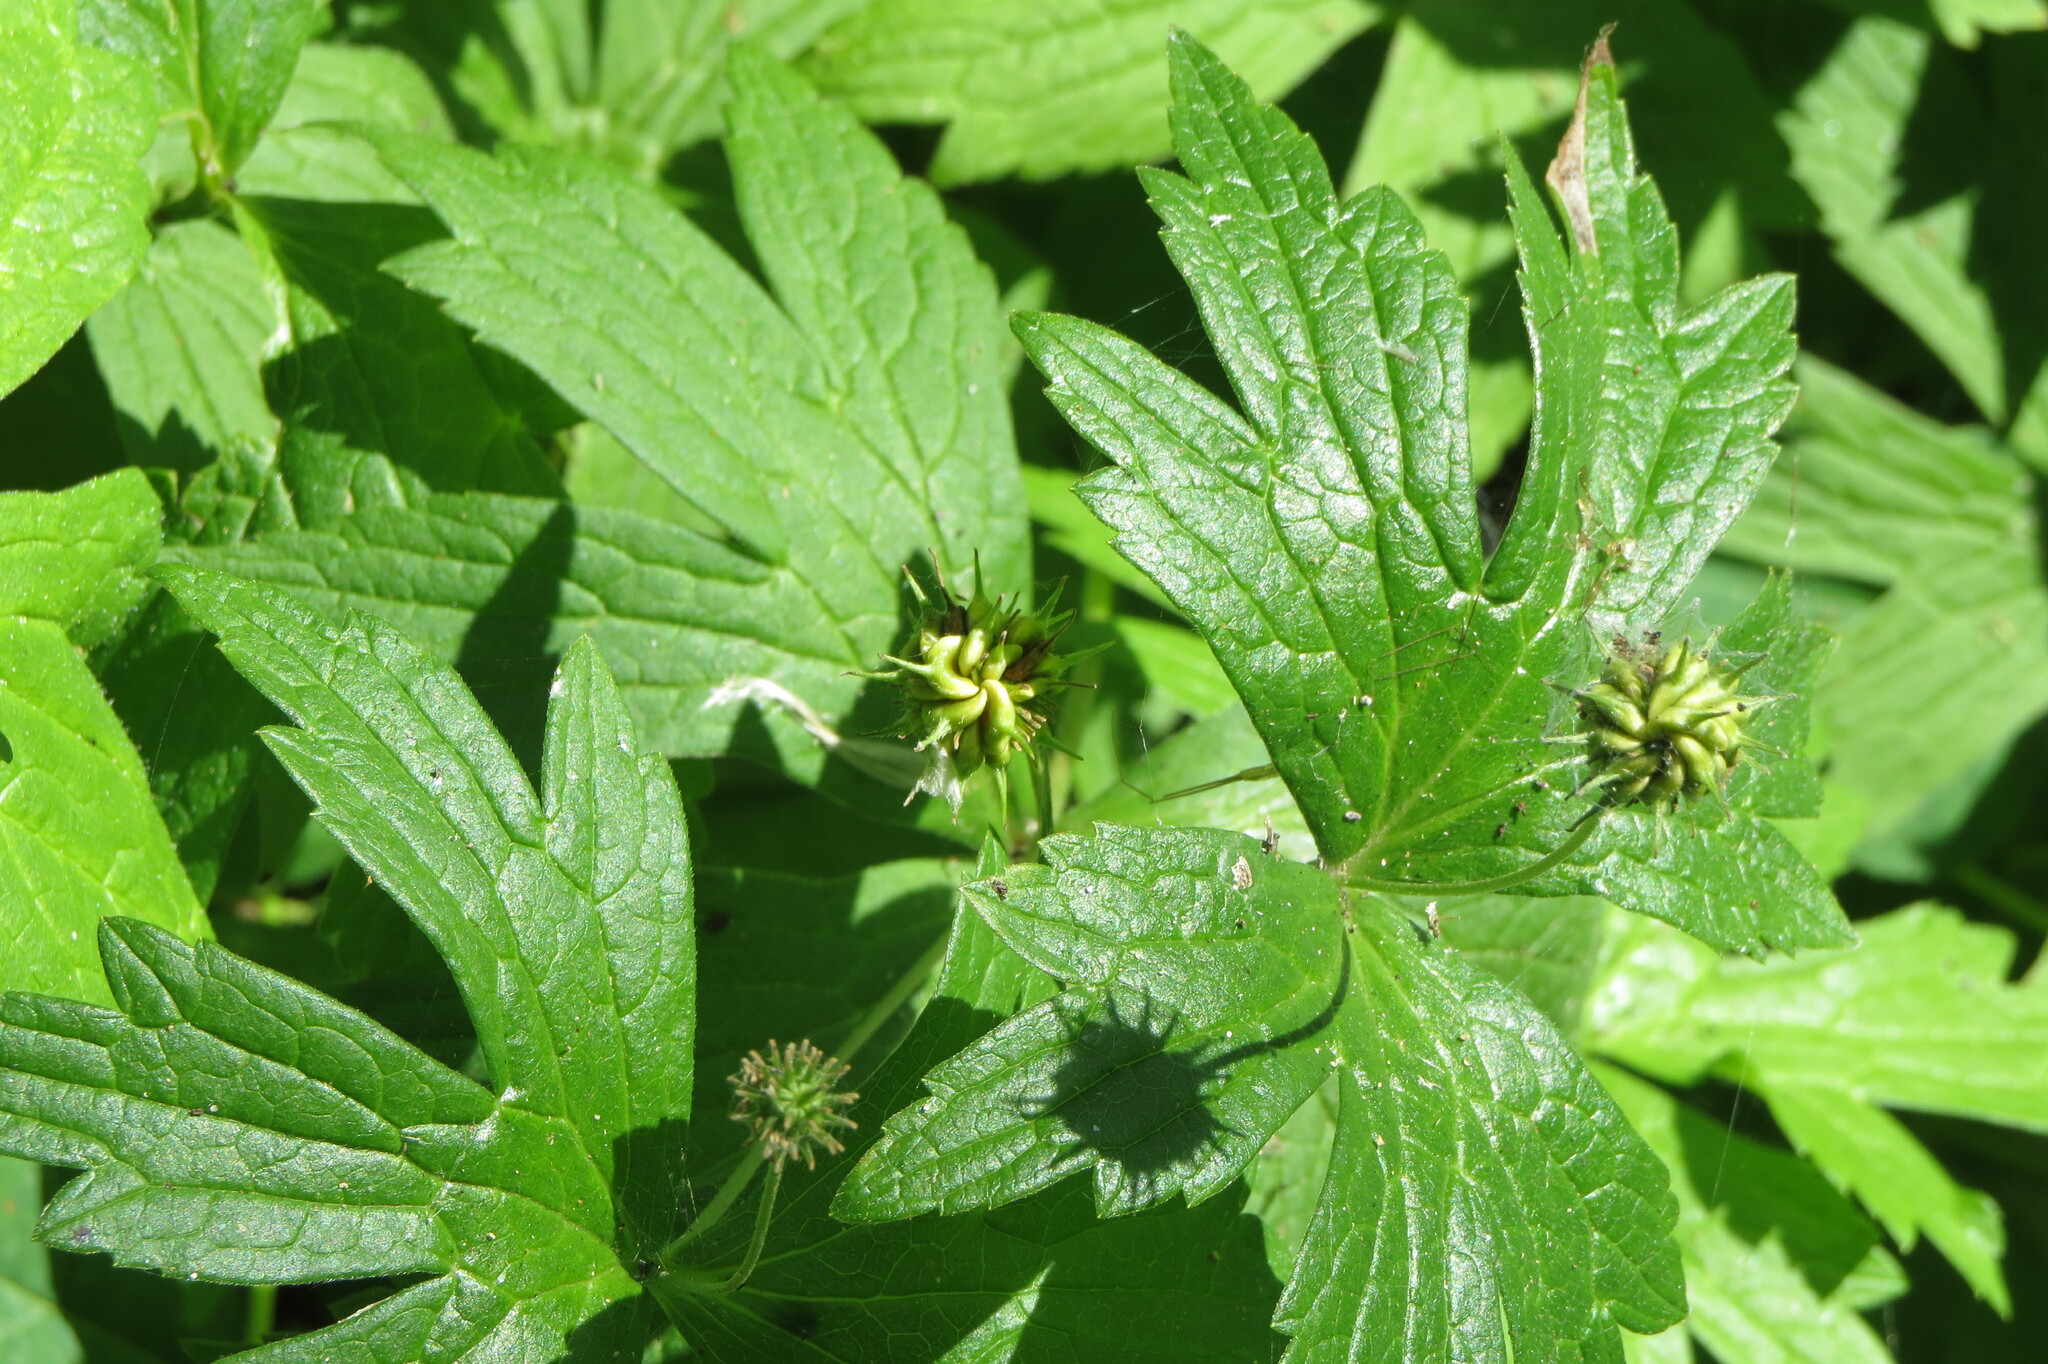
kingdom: Plantae
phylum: Tracheophyta
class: Magnoliopsida
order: Ranunculales
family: Ranunculaceae
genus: Anemonastrum
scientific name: Anemonastrum canadense
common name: Canada anemone
